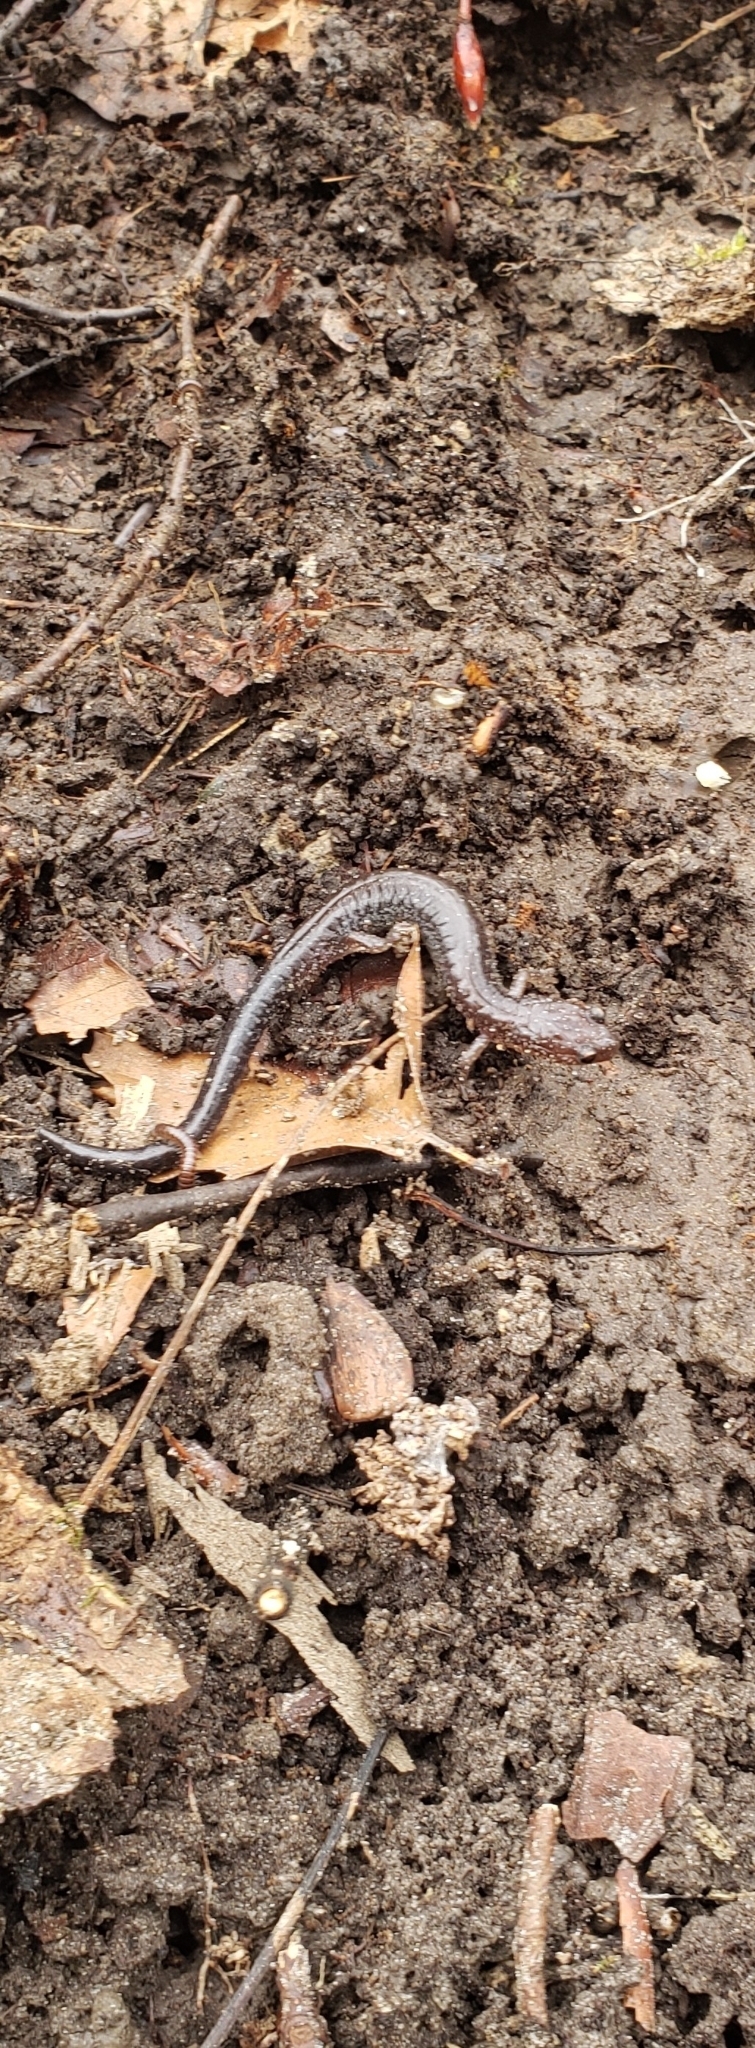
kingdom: Animalia
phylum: Chordata
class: Amphibia
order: Caudata
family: Plethodontidae
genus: Plethodon
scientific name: Plethodon cinereus
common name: Redback salamander
